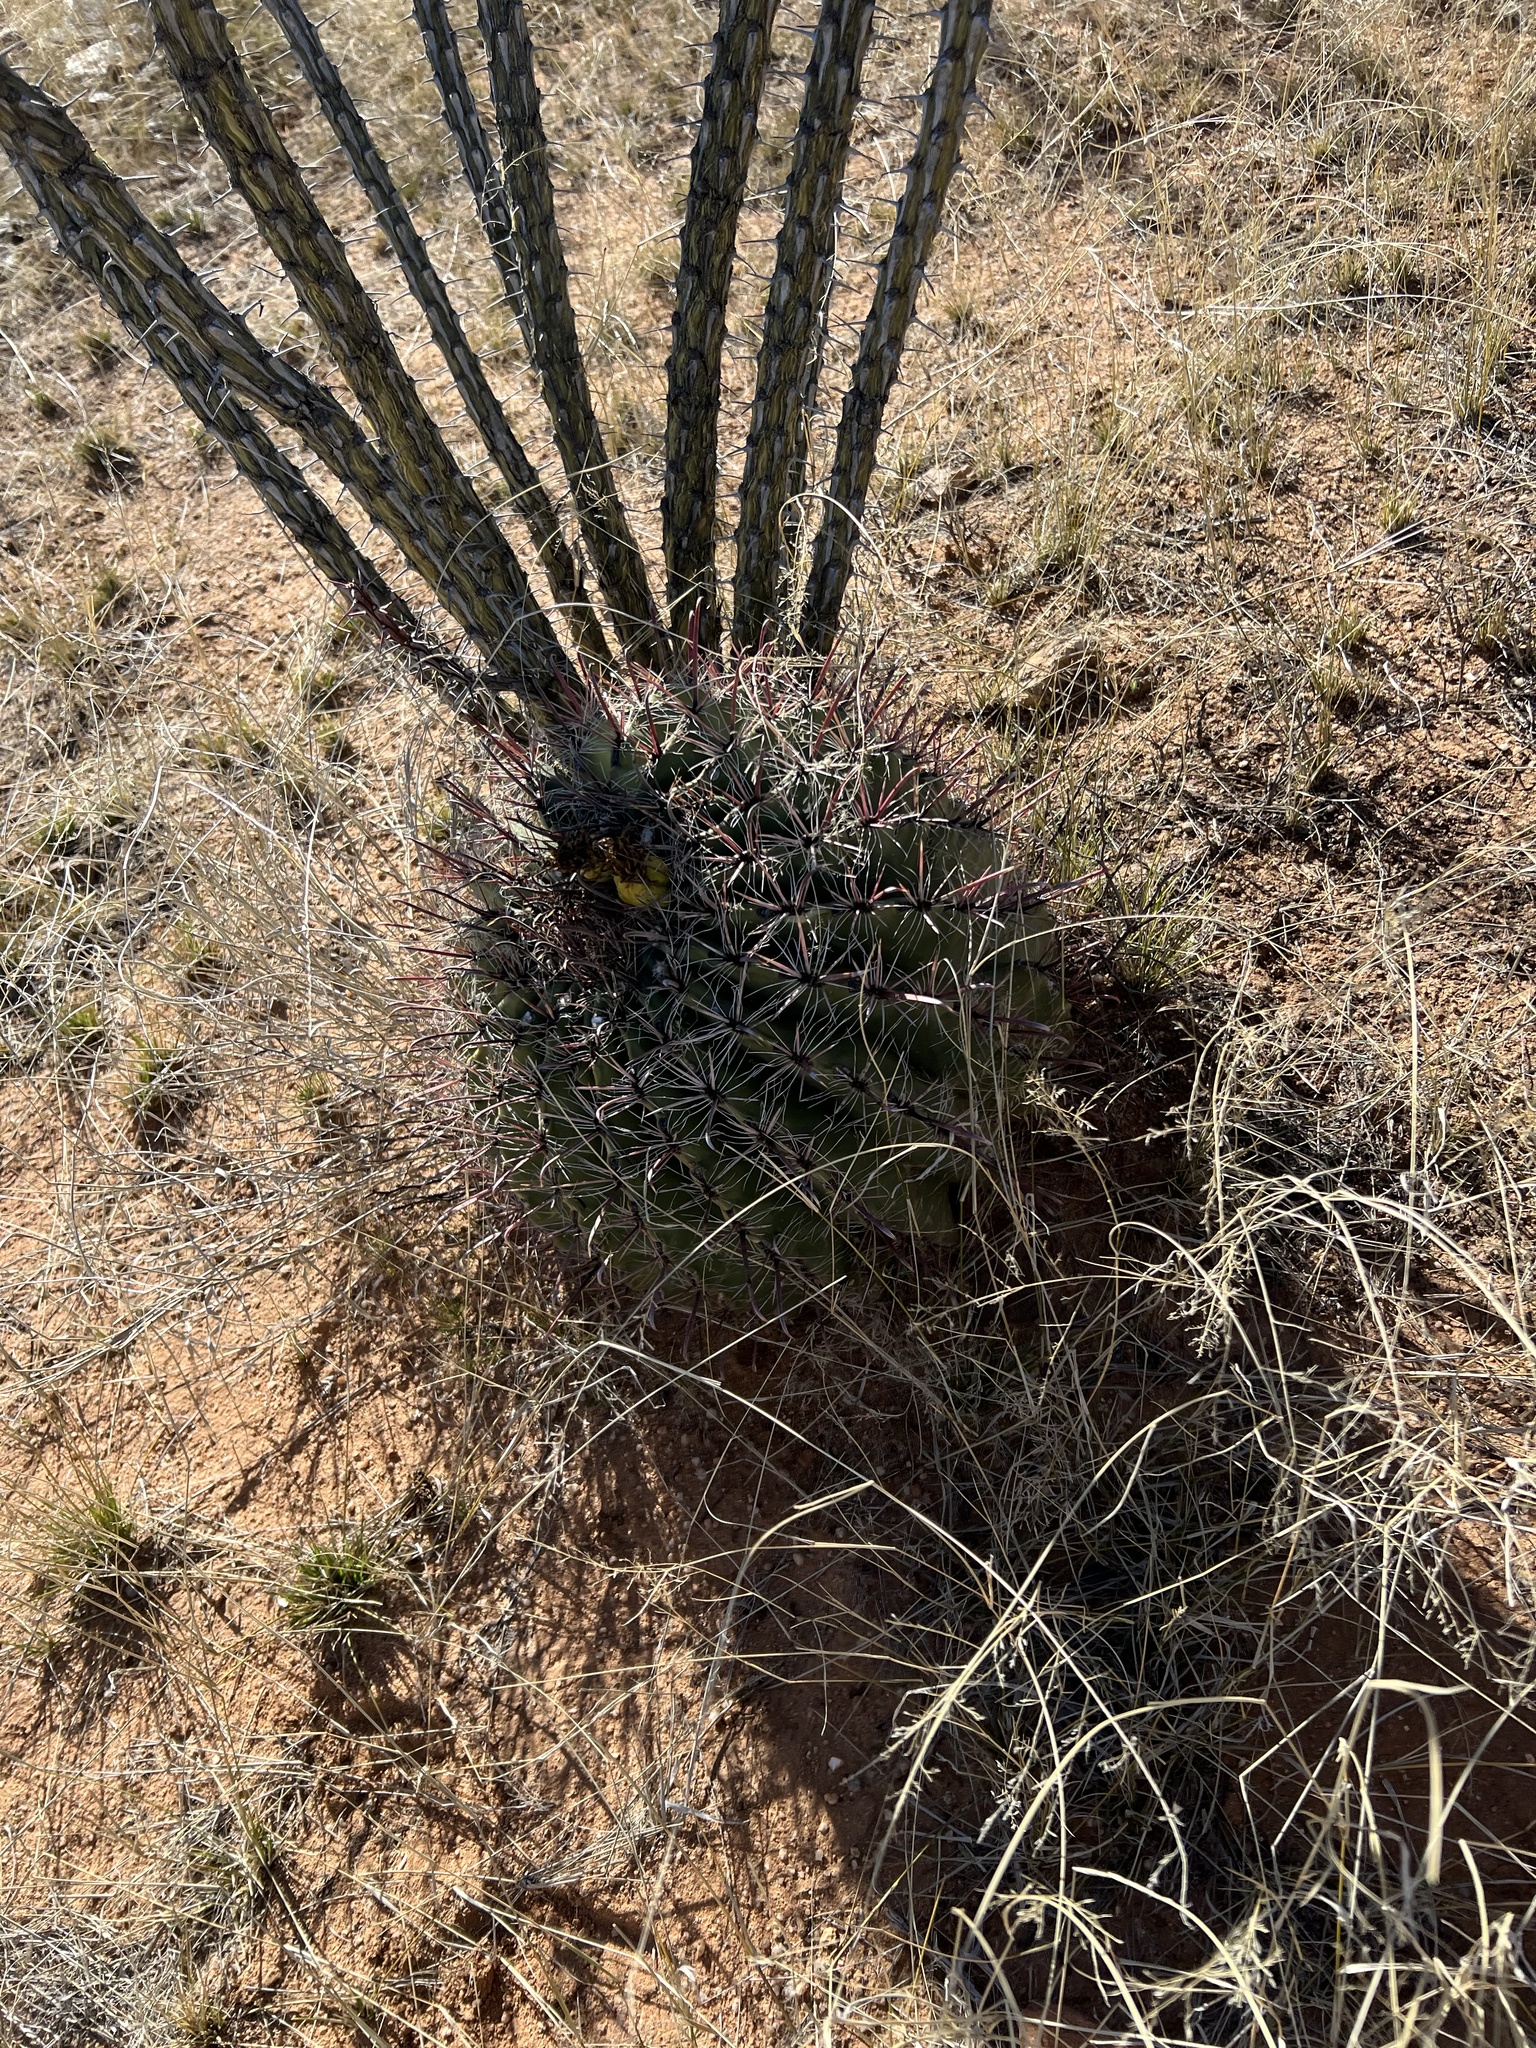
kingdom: Plantae
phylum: Tracheophyta
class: Magnoliopsida
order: Caryophyllales
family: Cactaceae
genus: Ferocactus
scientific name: Ferocactus wislizeni
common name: Candy barrel cactus
